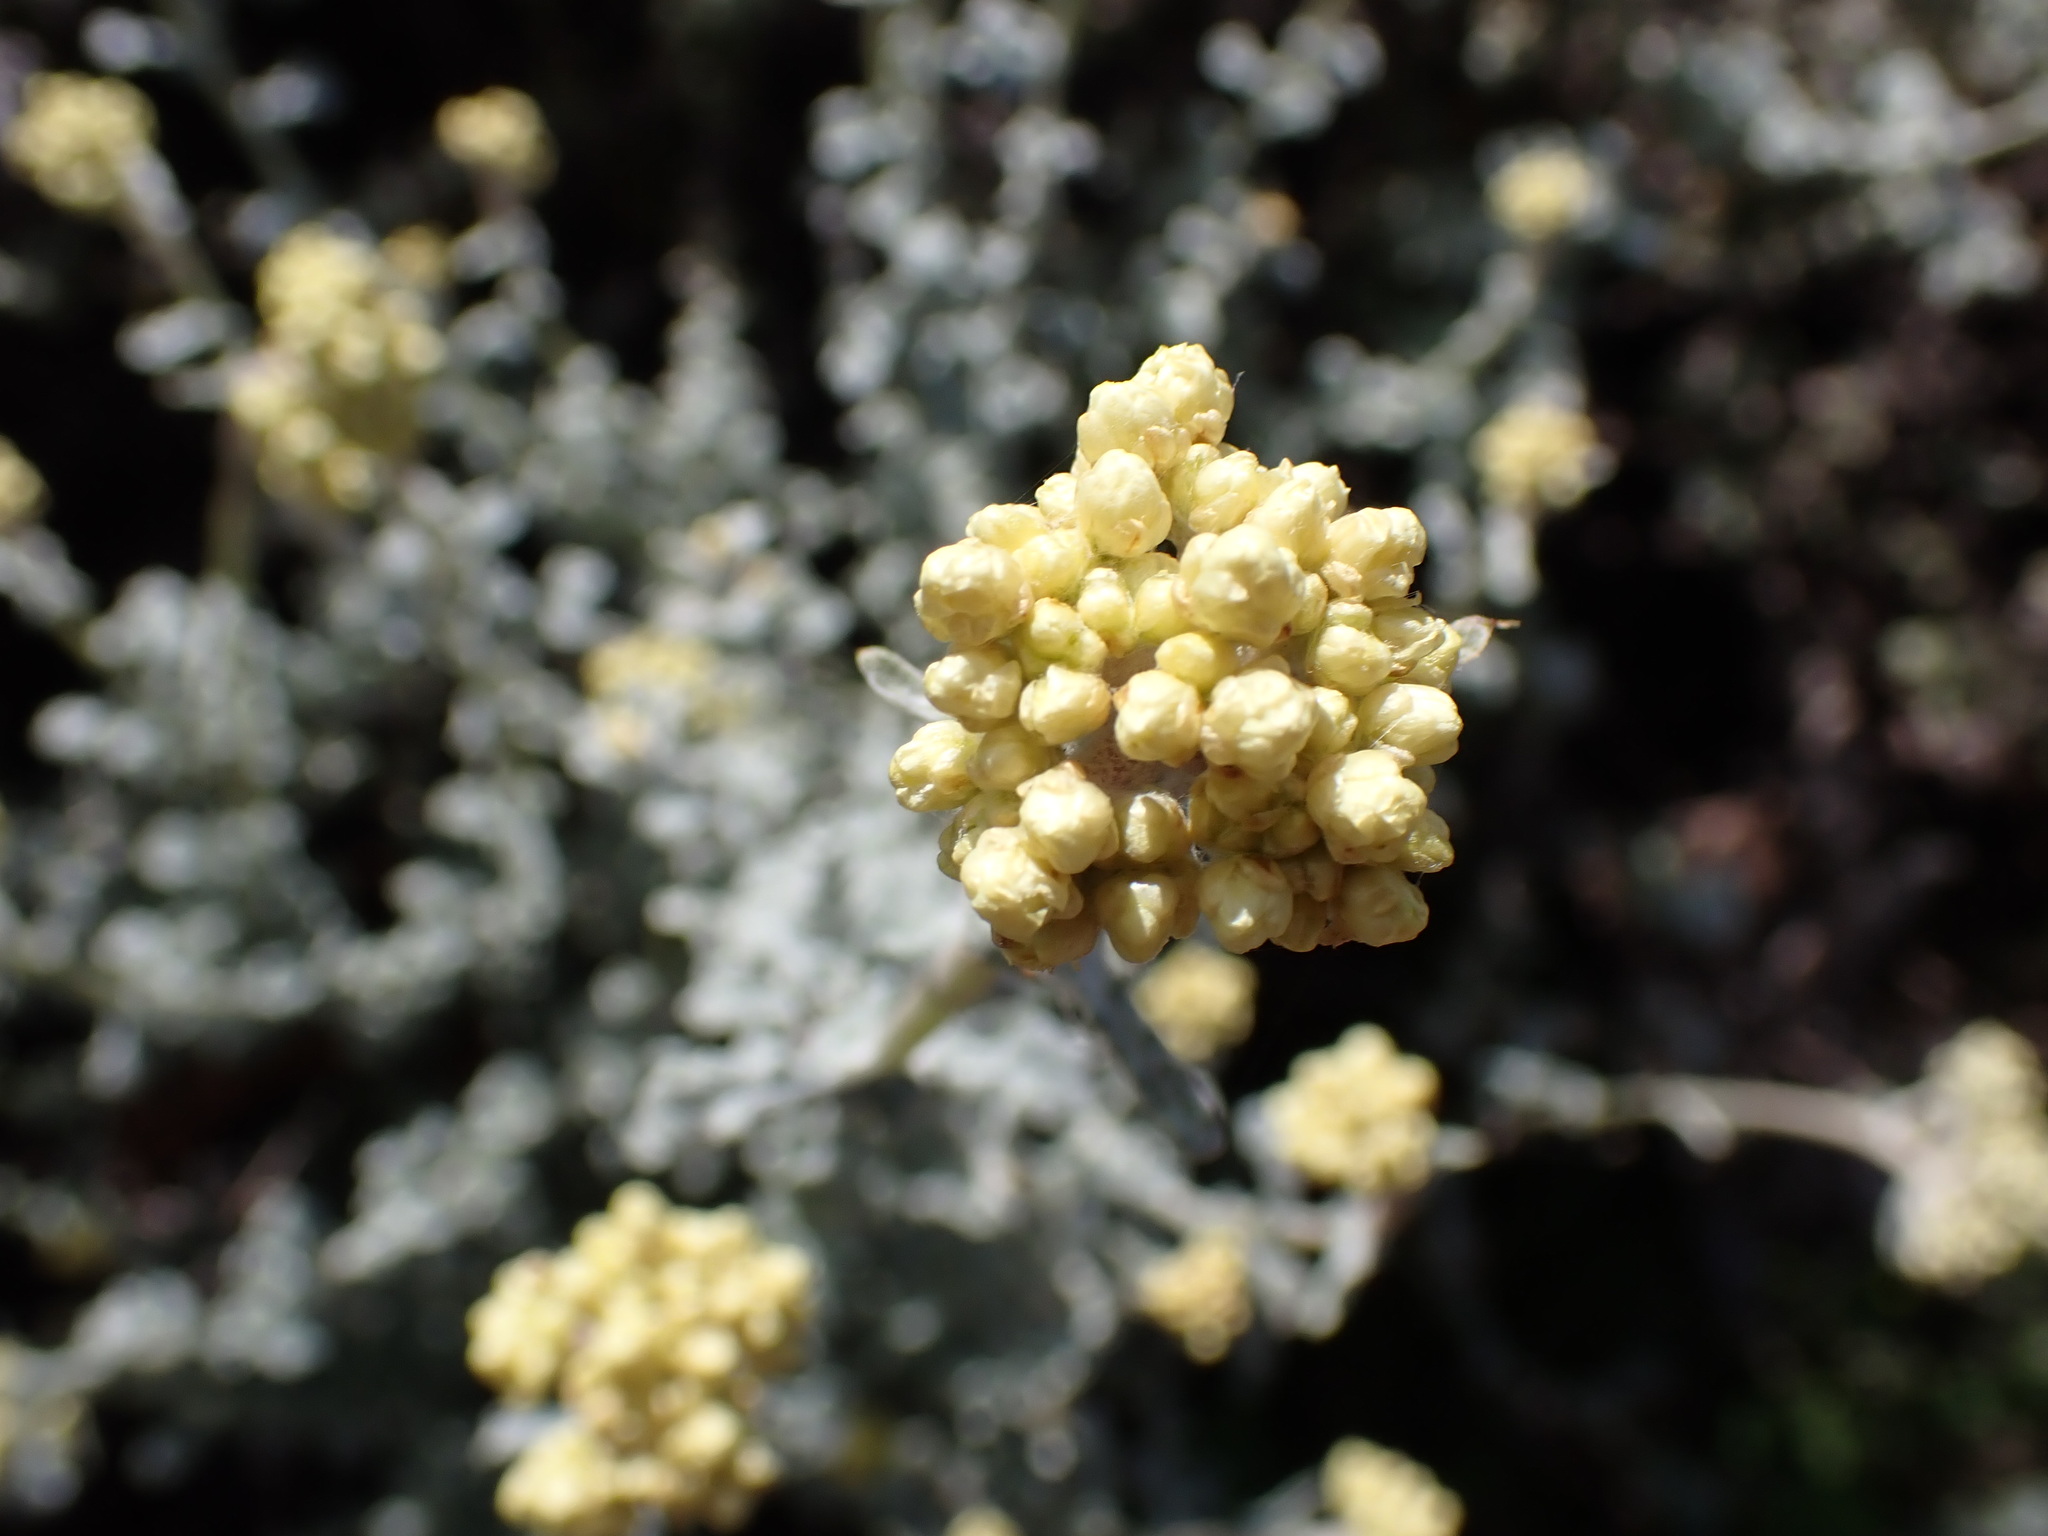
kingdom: Plantae
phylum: Tracheophyta
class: Magnoliopsida
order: Asterales
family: Asteraceae
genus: Helichrysum
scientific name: Helichrysum patulum
